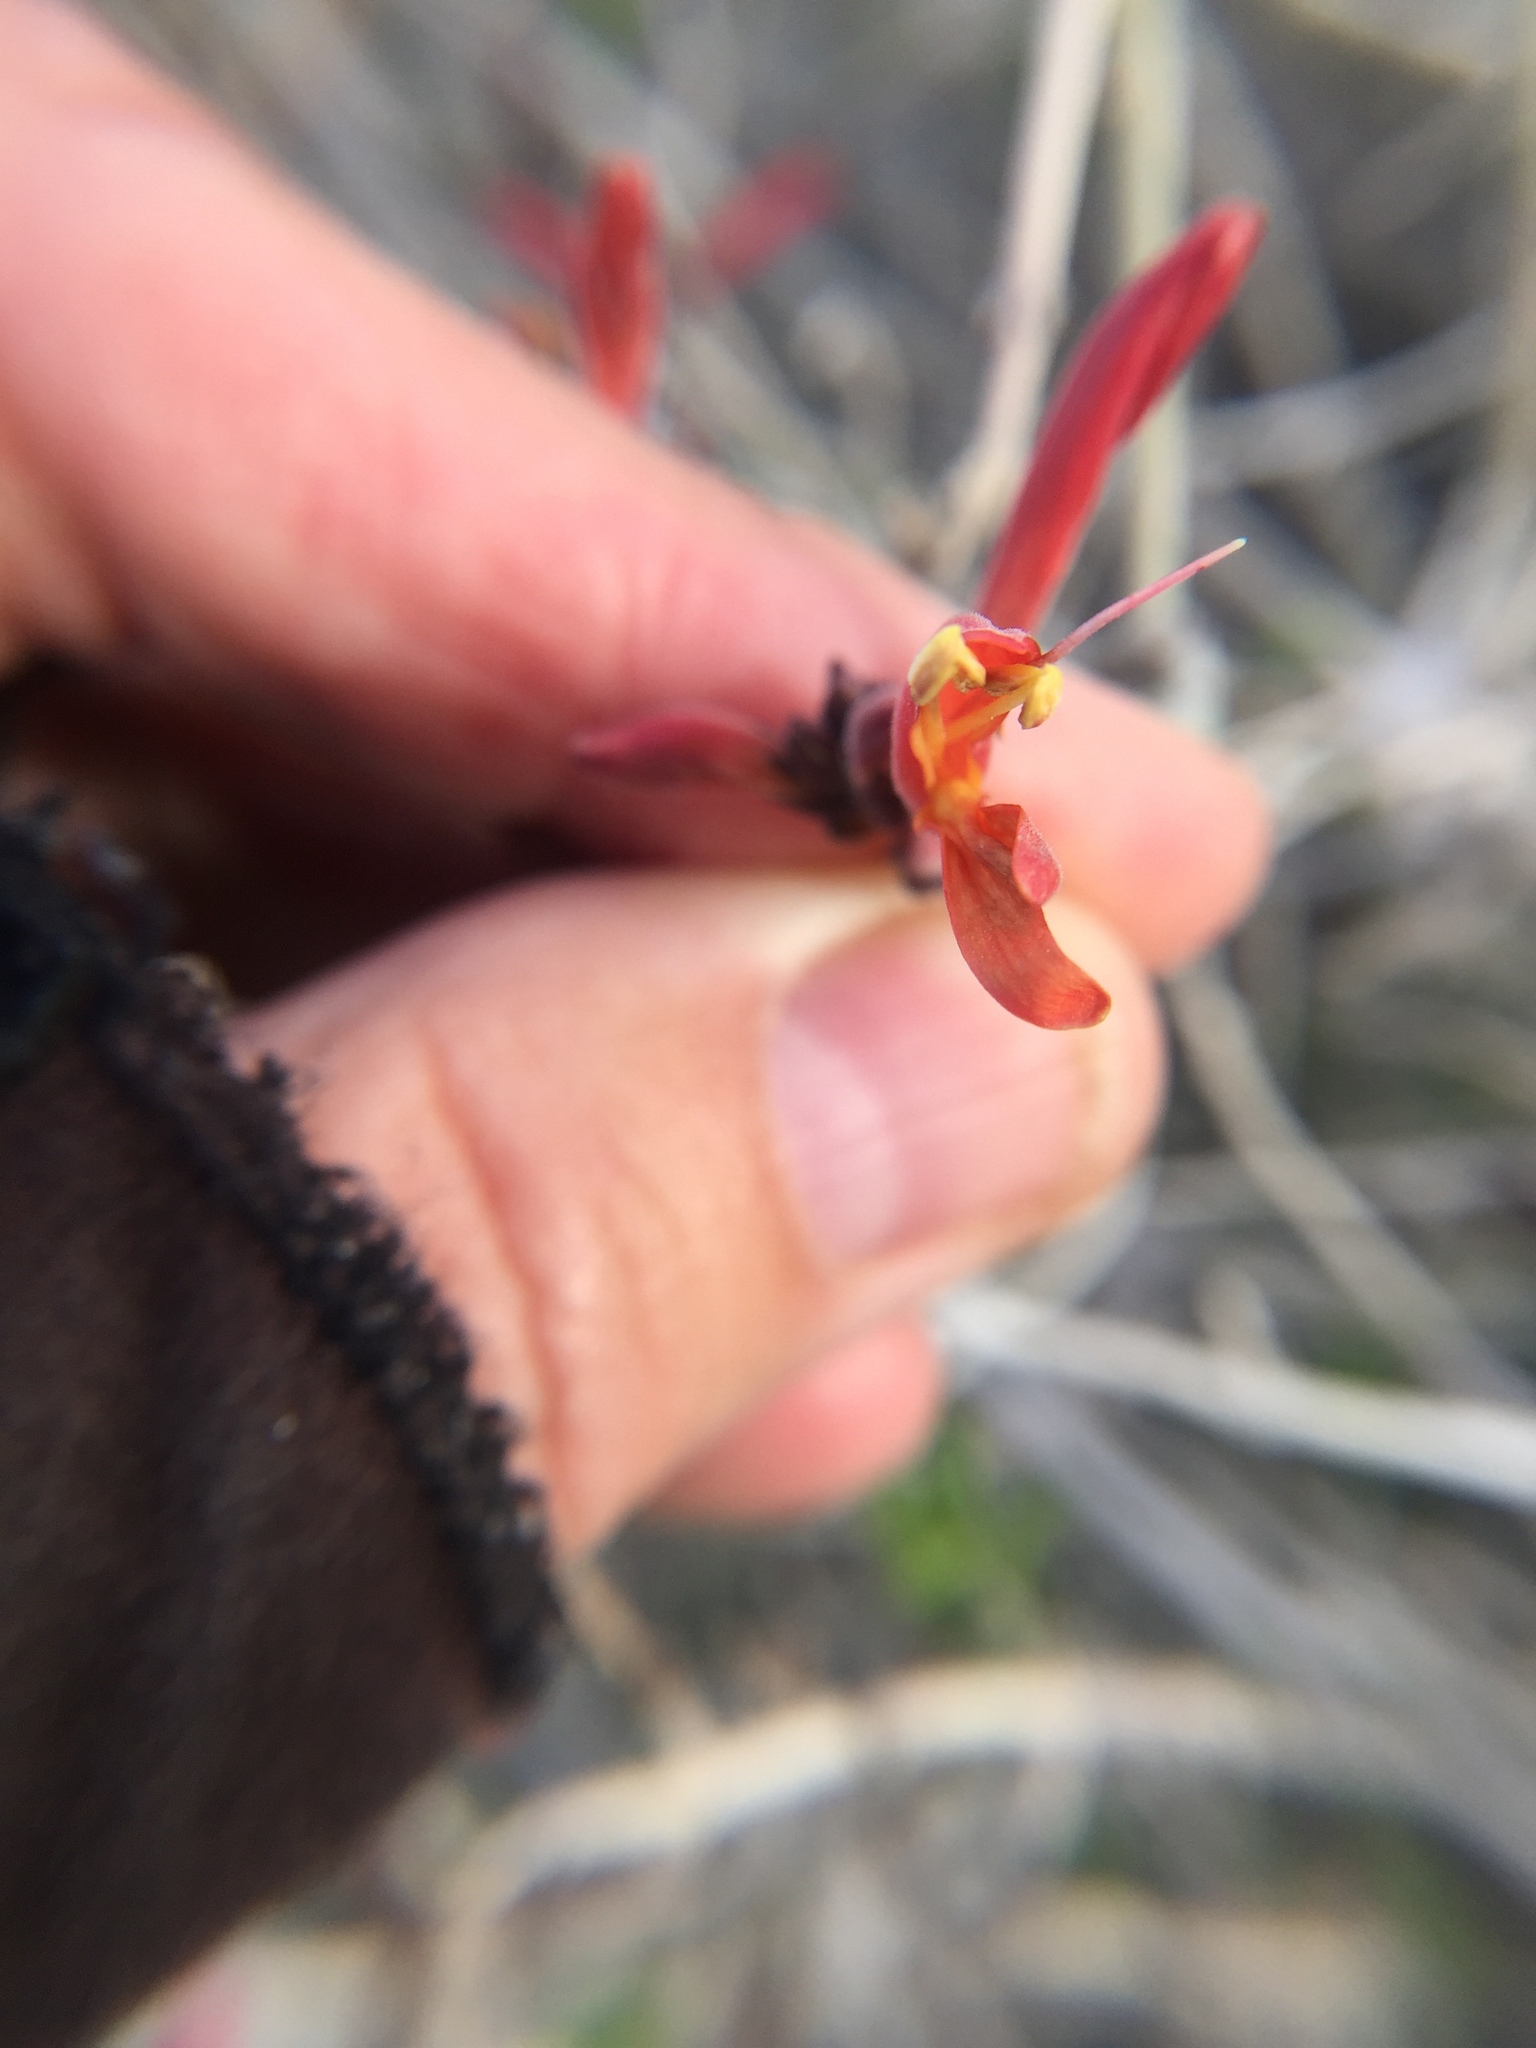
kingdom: Plantae
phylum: Tracheophyta
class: Magnoliopsida
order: Lamiales
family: Acanthaceae
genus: Justicia
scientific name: Justicia californica
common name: Chuparosa-honeysuckle
